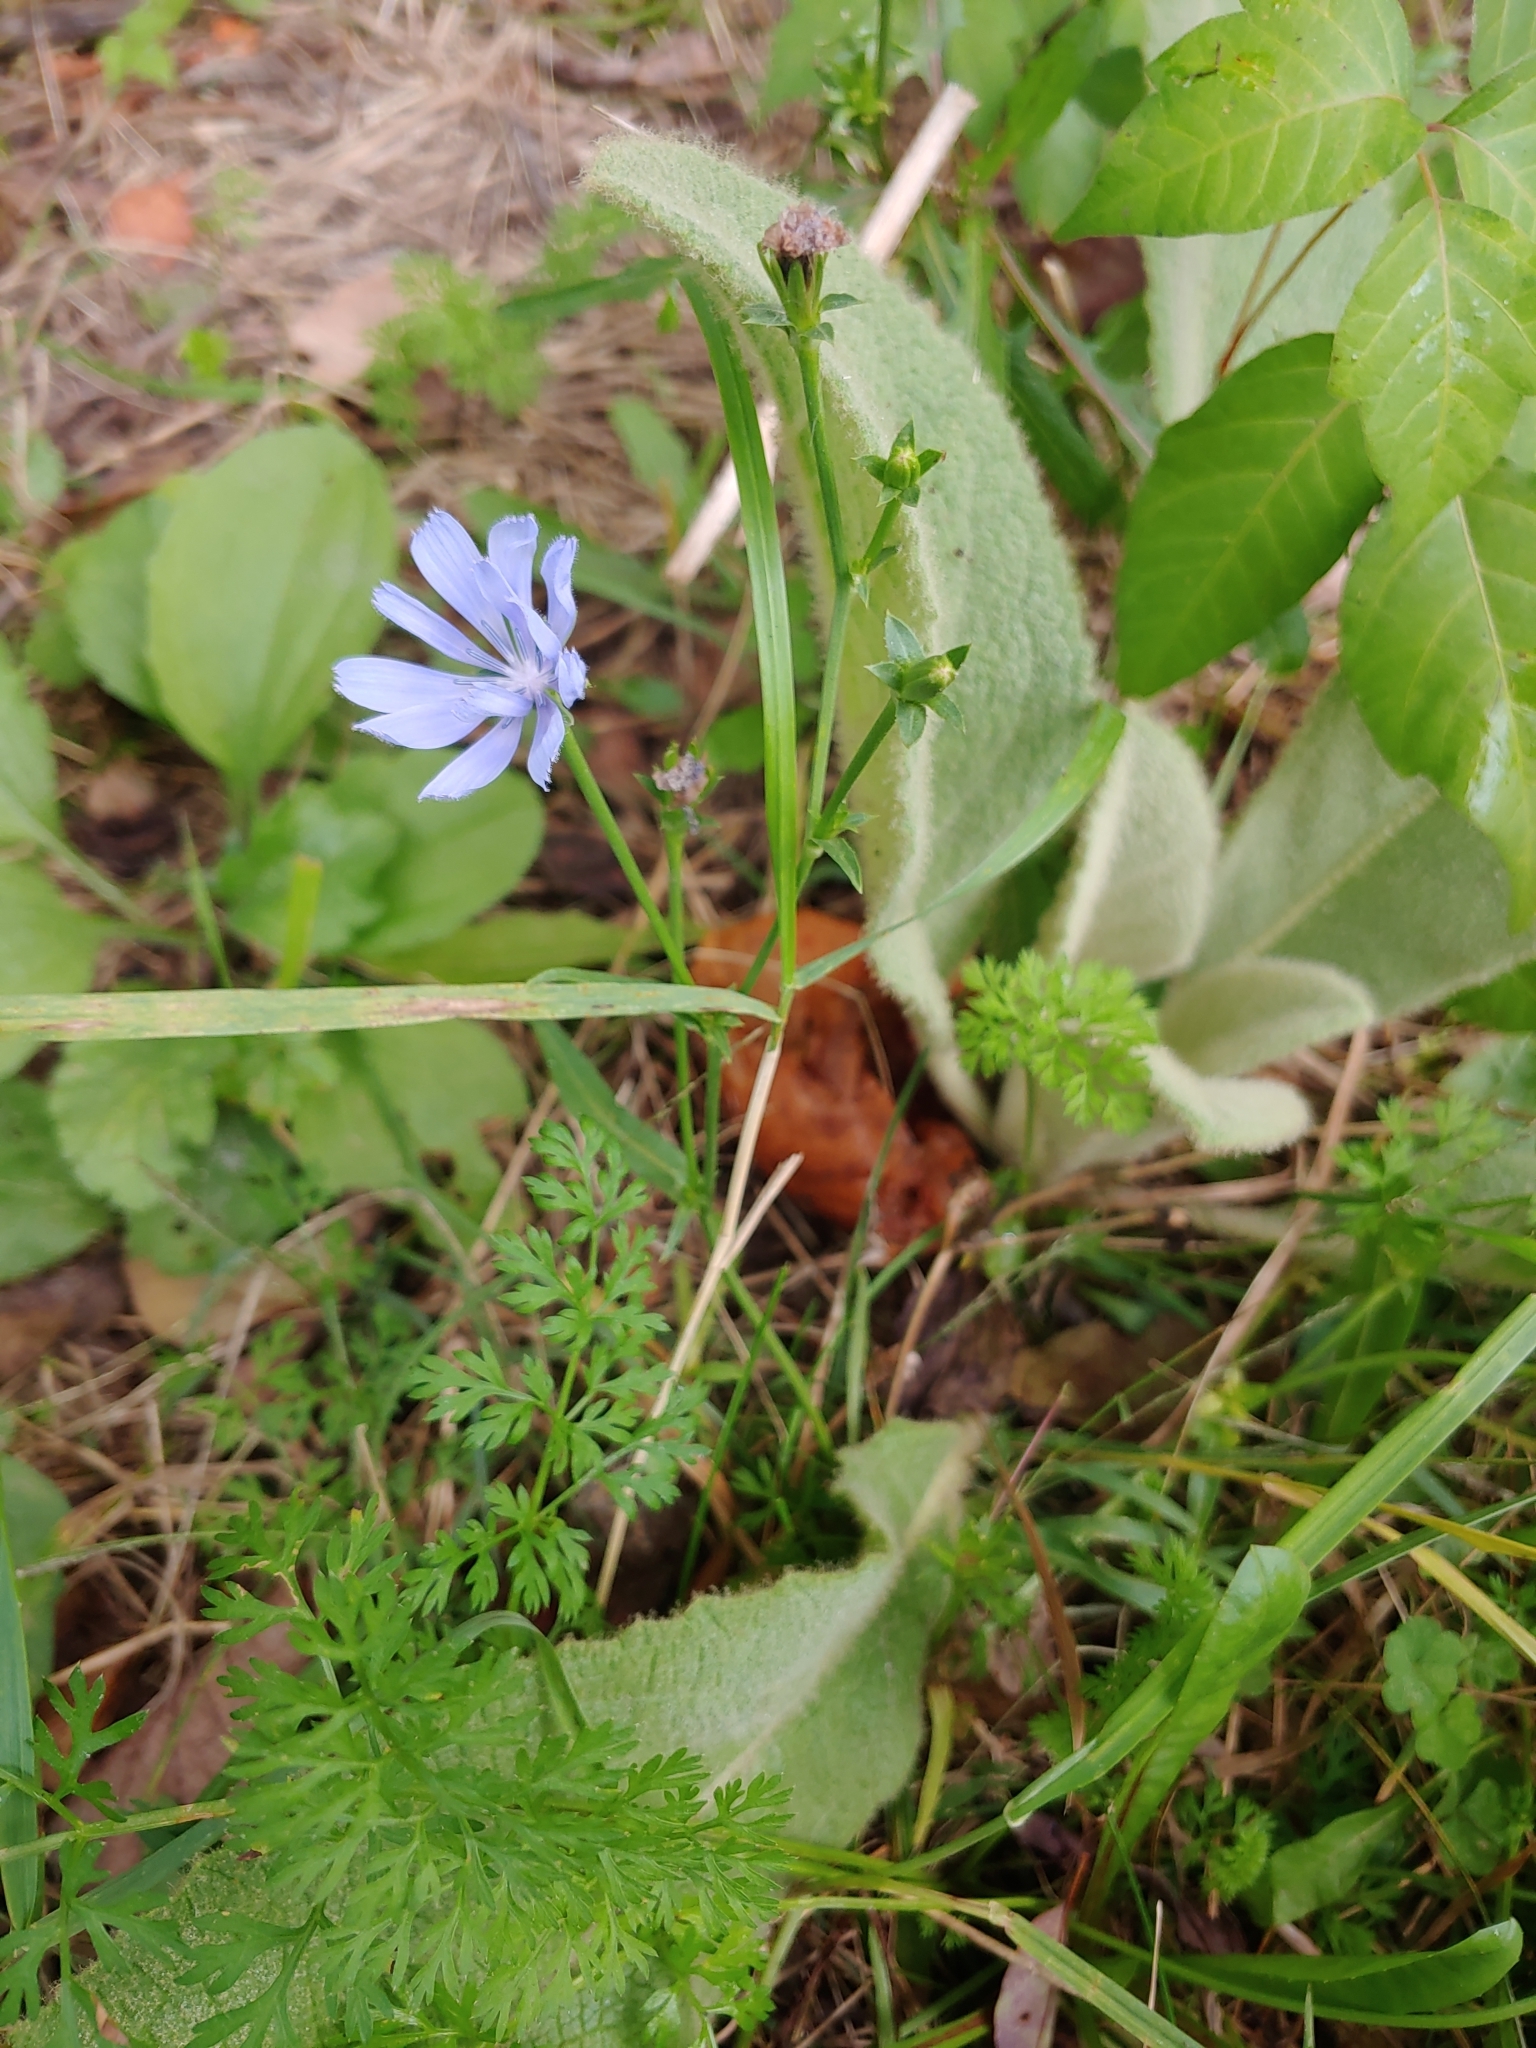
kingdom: Plantae
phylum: Tracheophyta
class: Magnoliopsida
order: Asterales
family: Asteraceae
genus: Cichorium
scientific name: Cichorium intybus
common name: Chicory
